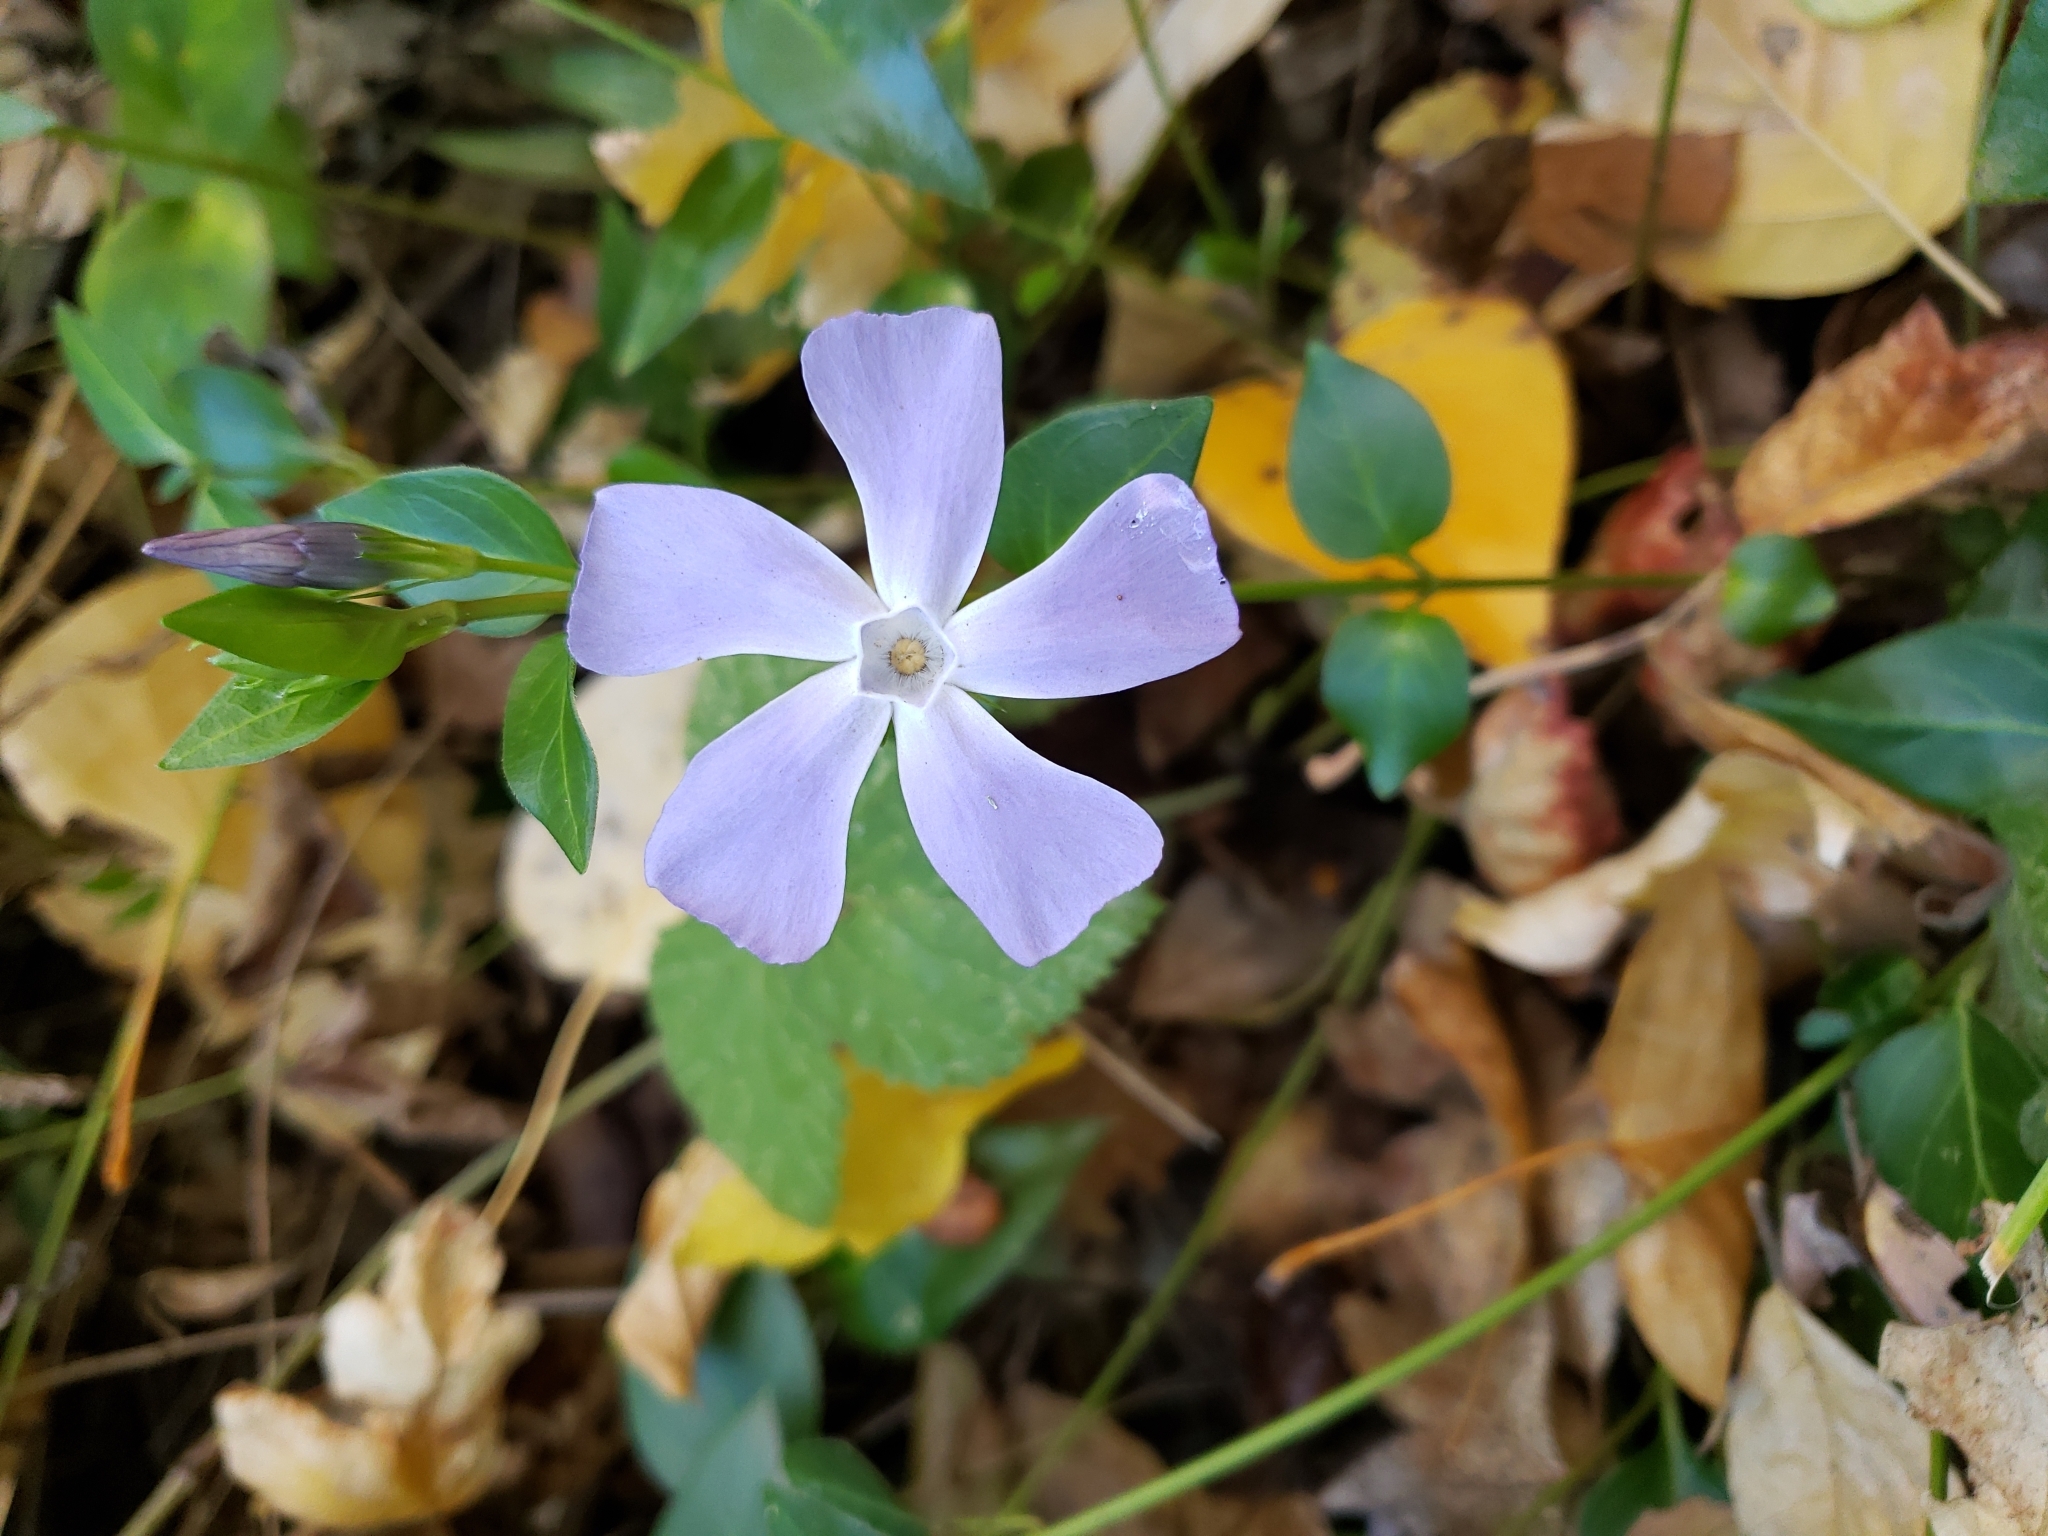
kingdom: Plantae
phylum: Tracheophyta
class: Magnoliopsida
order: Gentianales
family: Apocynaceae
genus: Vinca
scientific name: Vinca major
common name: Greater periwinkle
